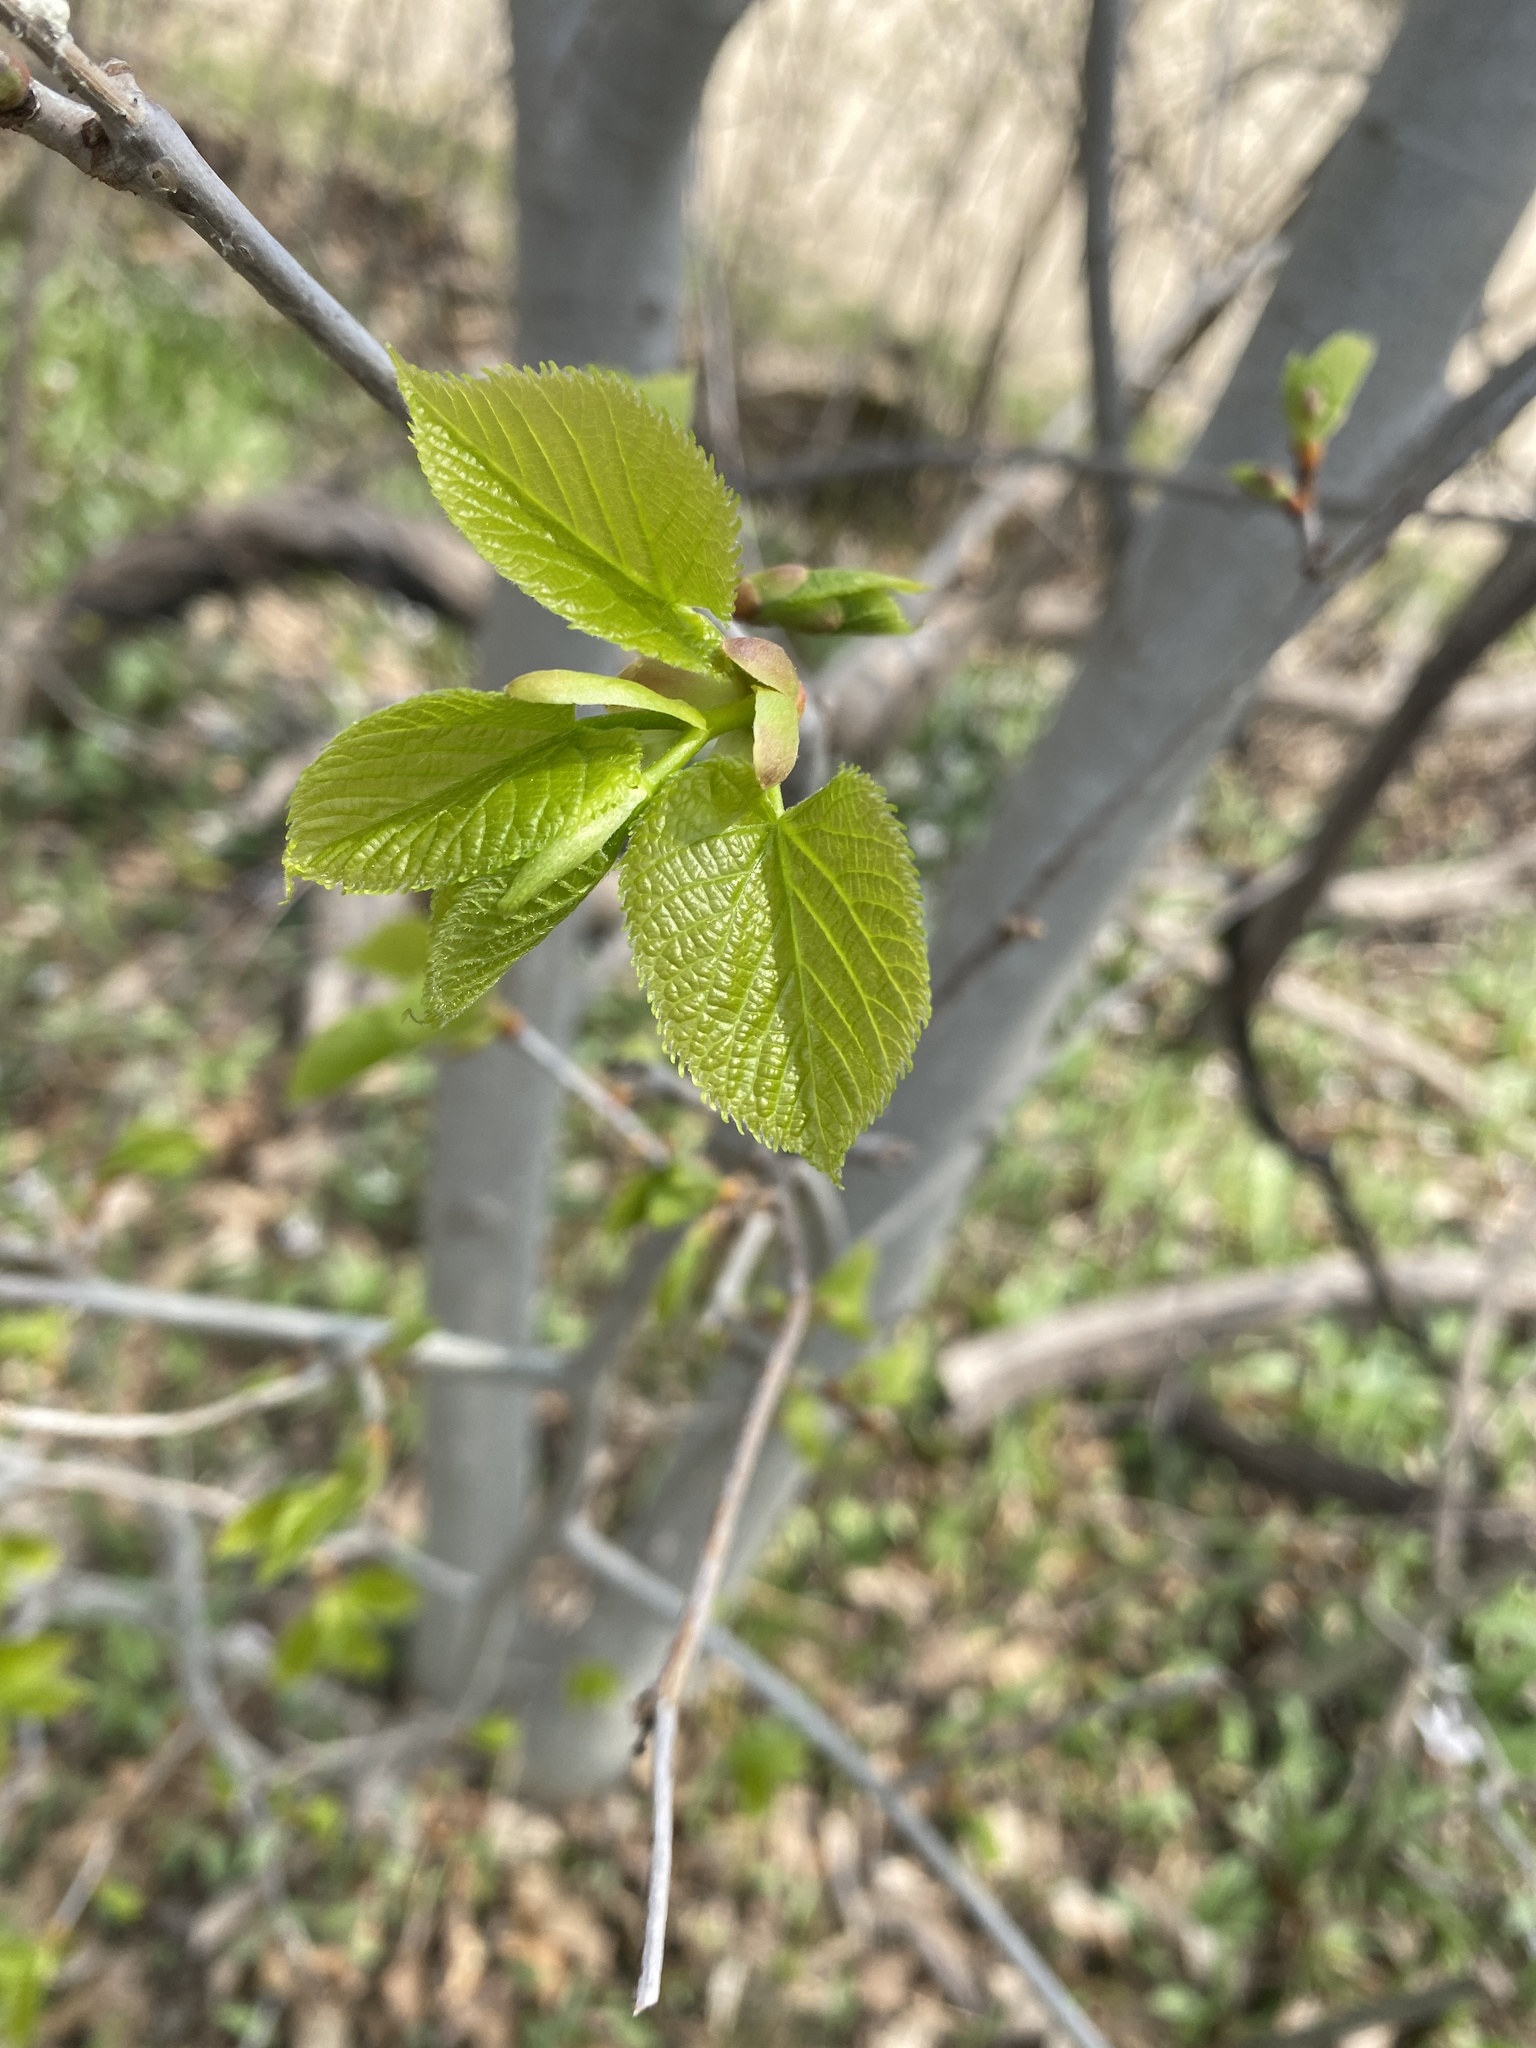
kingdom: Plantae
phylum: Tracheophyta
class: Magnoliopsida
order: Malvales
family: Malvaceae
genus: Tilia
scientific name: Tilia americana
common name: Basswood
